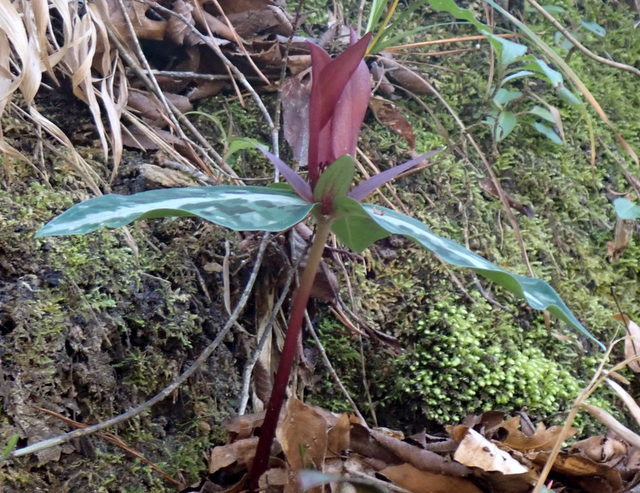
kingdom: Plantae
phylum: Tracheophyta
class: Liliopsida
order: Liliales
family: Melanthiaceae
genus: Trillium
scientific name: Trillium underwoodii
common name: Longbract wakerobin
